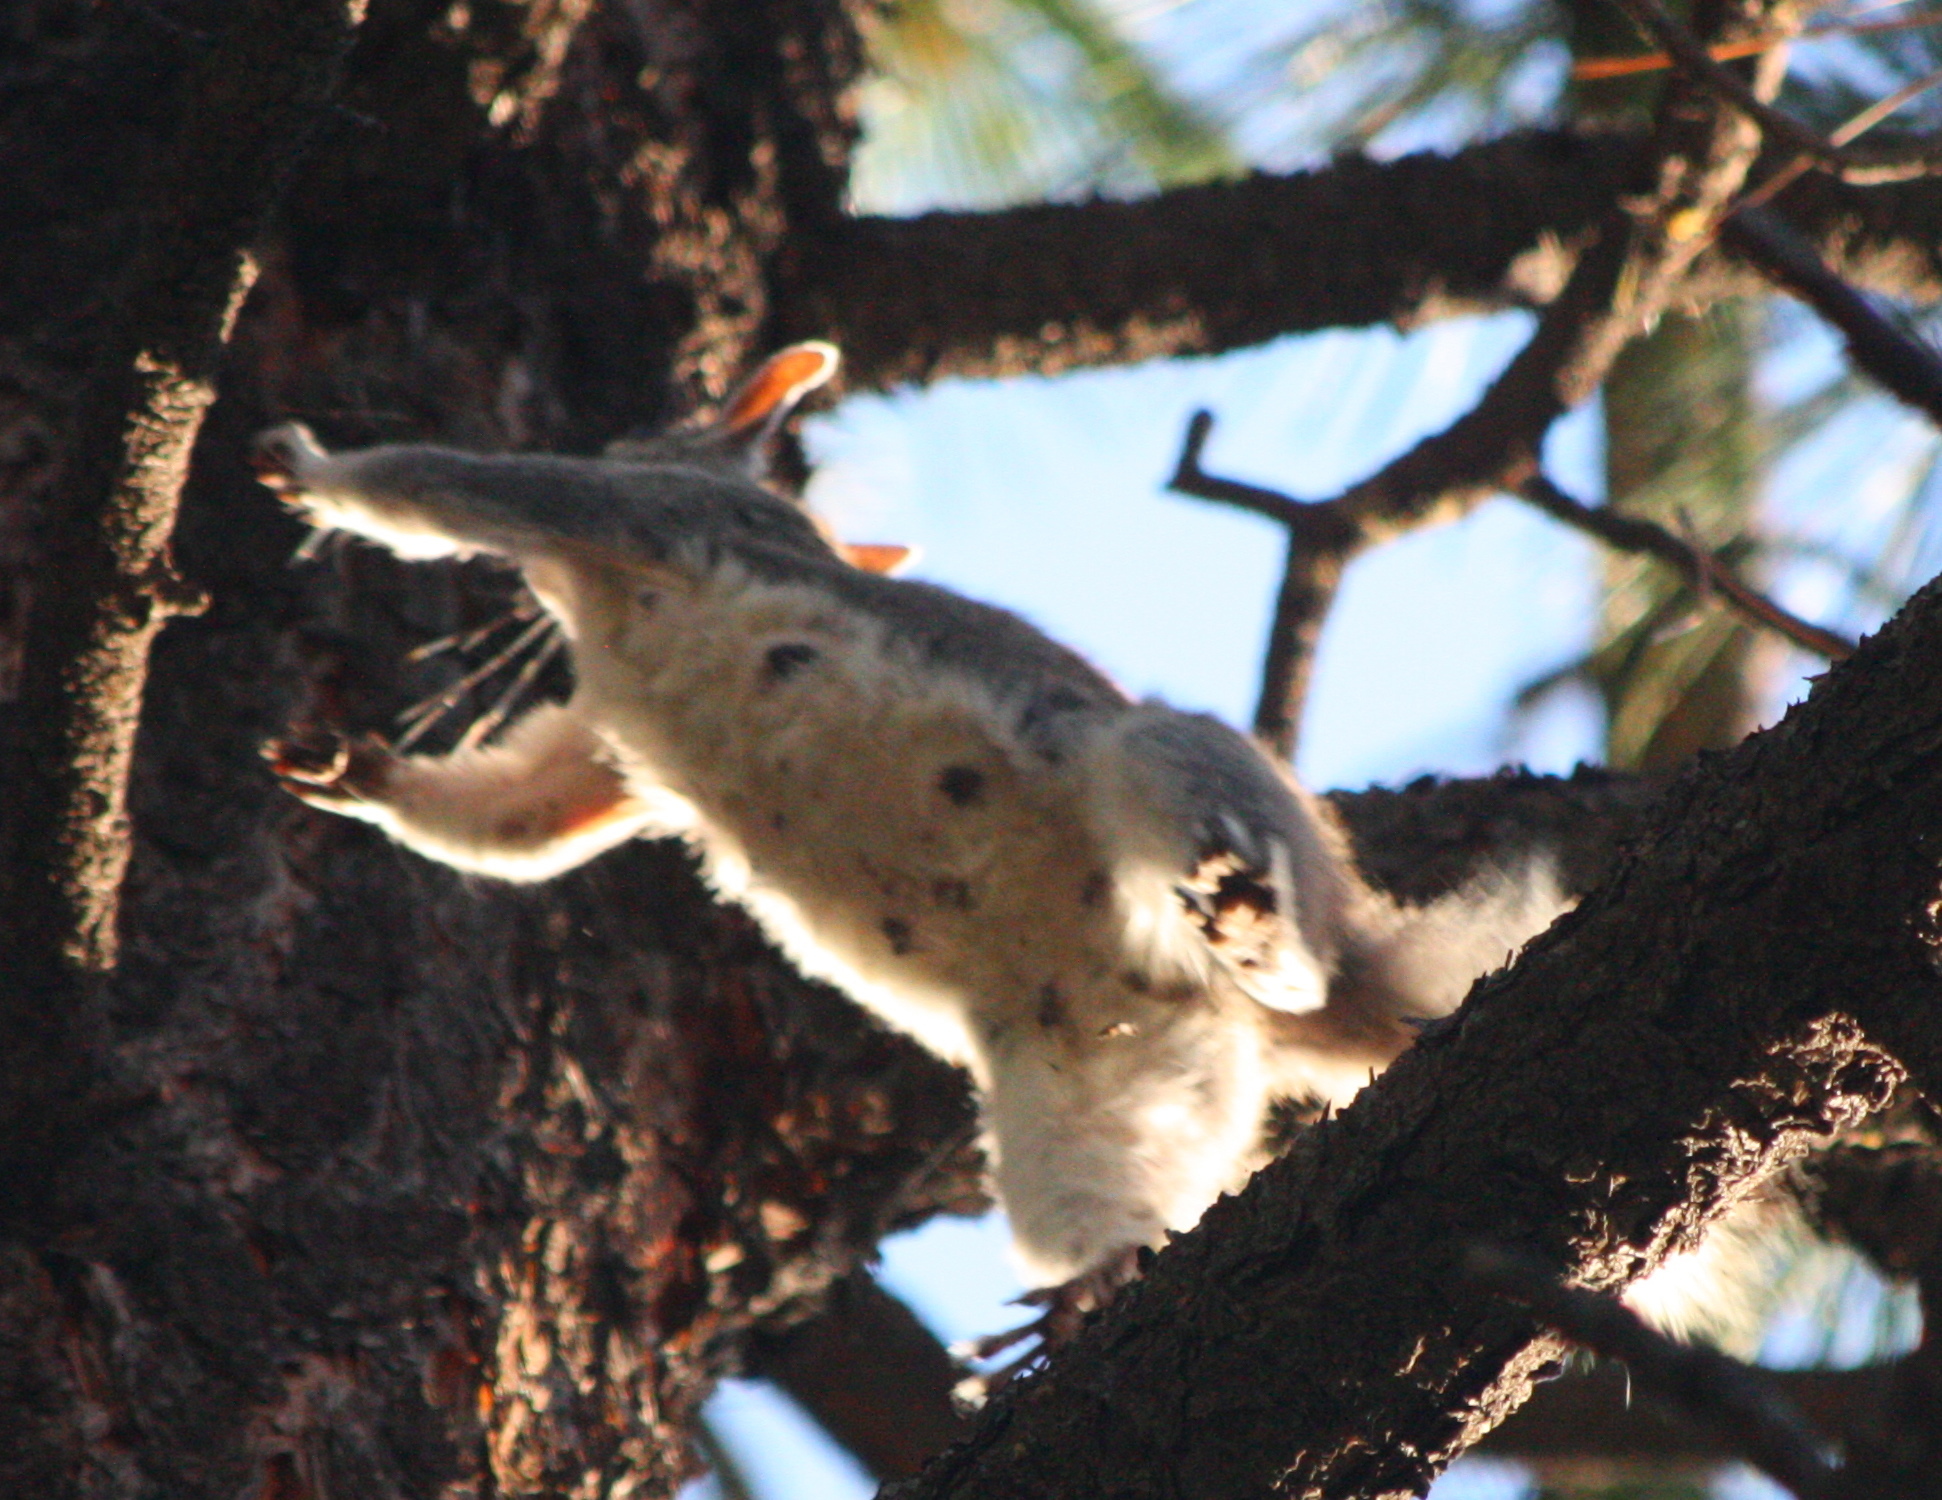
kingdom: Animalia
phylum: Chordata
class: Mammalia
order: Rodentia
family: Sciuridae
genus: Sciurus
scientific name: Sciurus aberti
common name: Abert's squirrel
